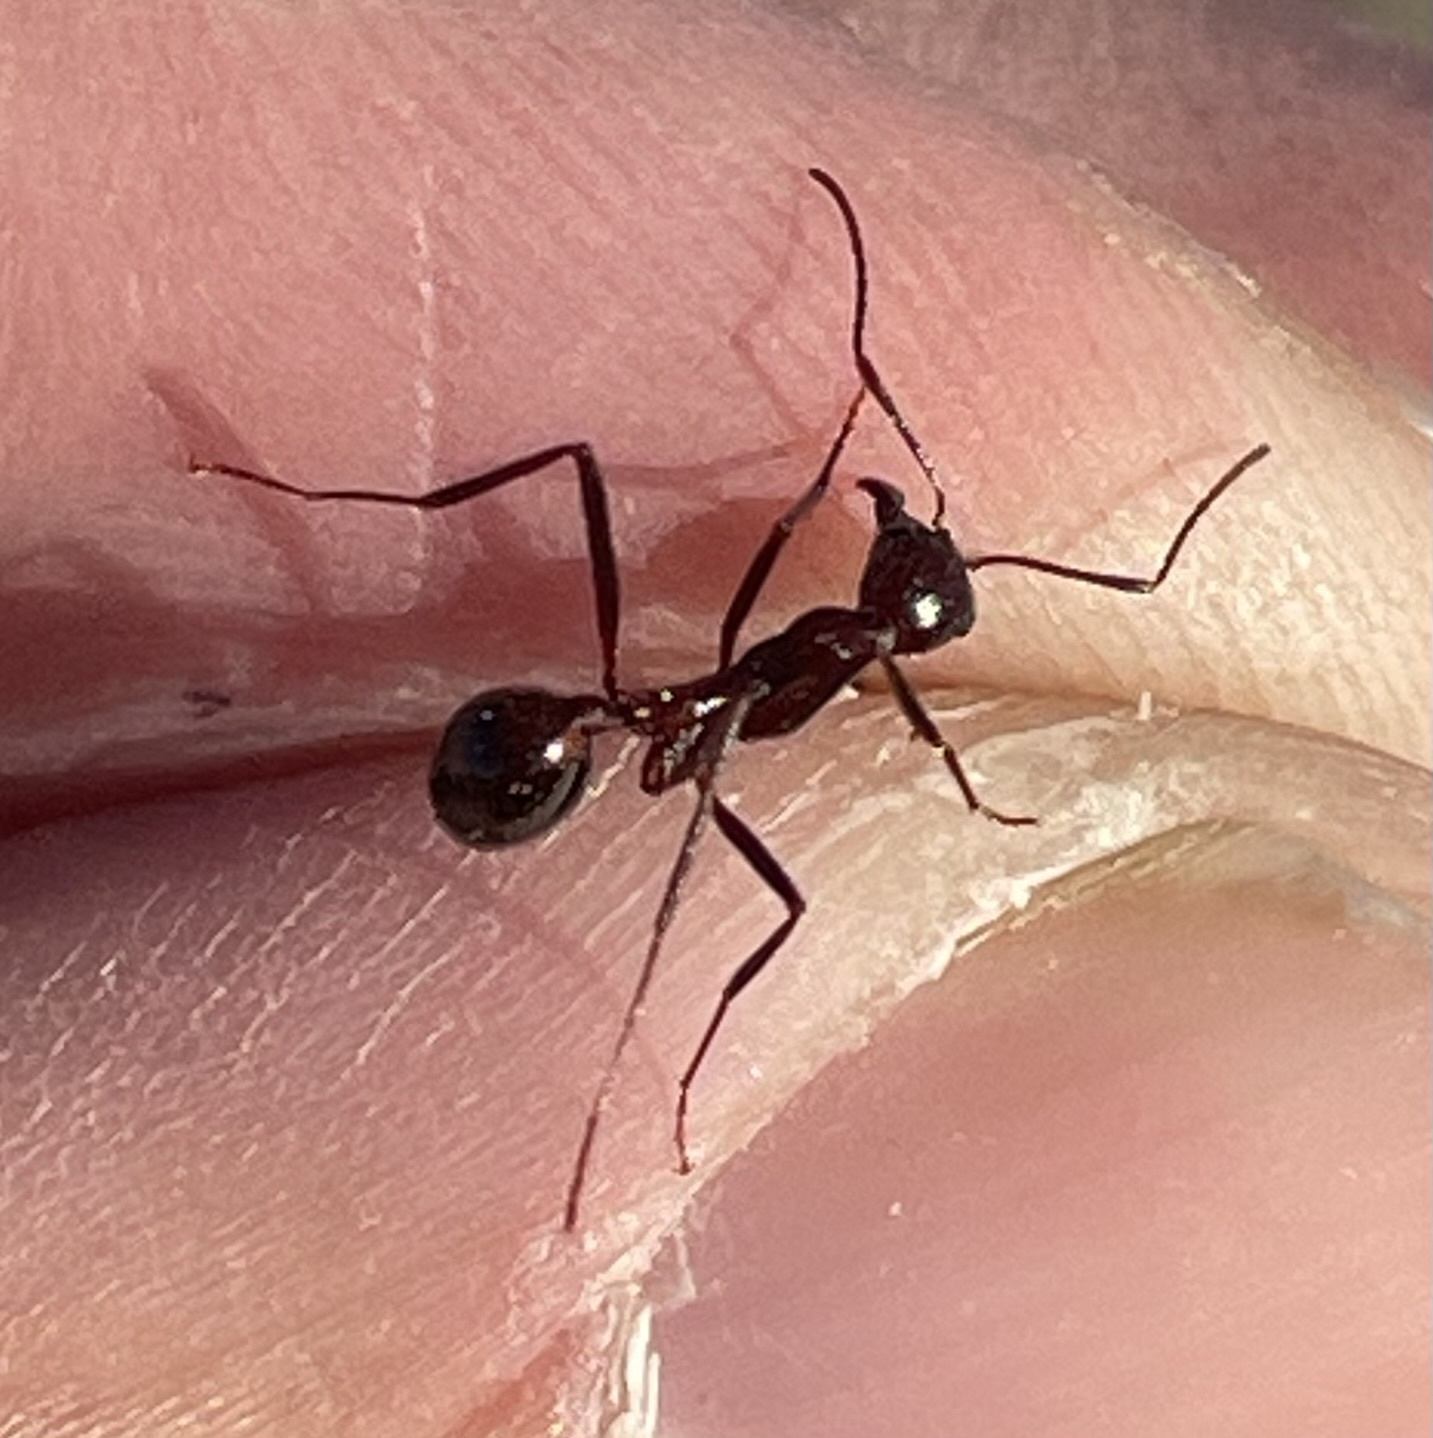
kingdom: Animalia
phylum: Arthropoda
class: Insecta
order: Hymenoptera
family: Formicidae
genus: Novomessor
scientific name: Novomessor cockerelli
